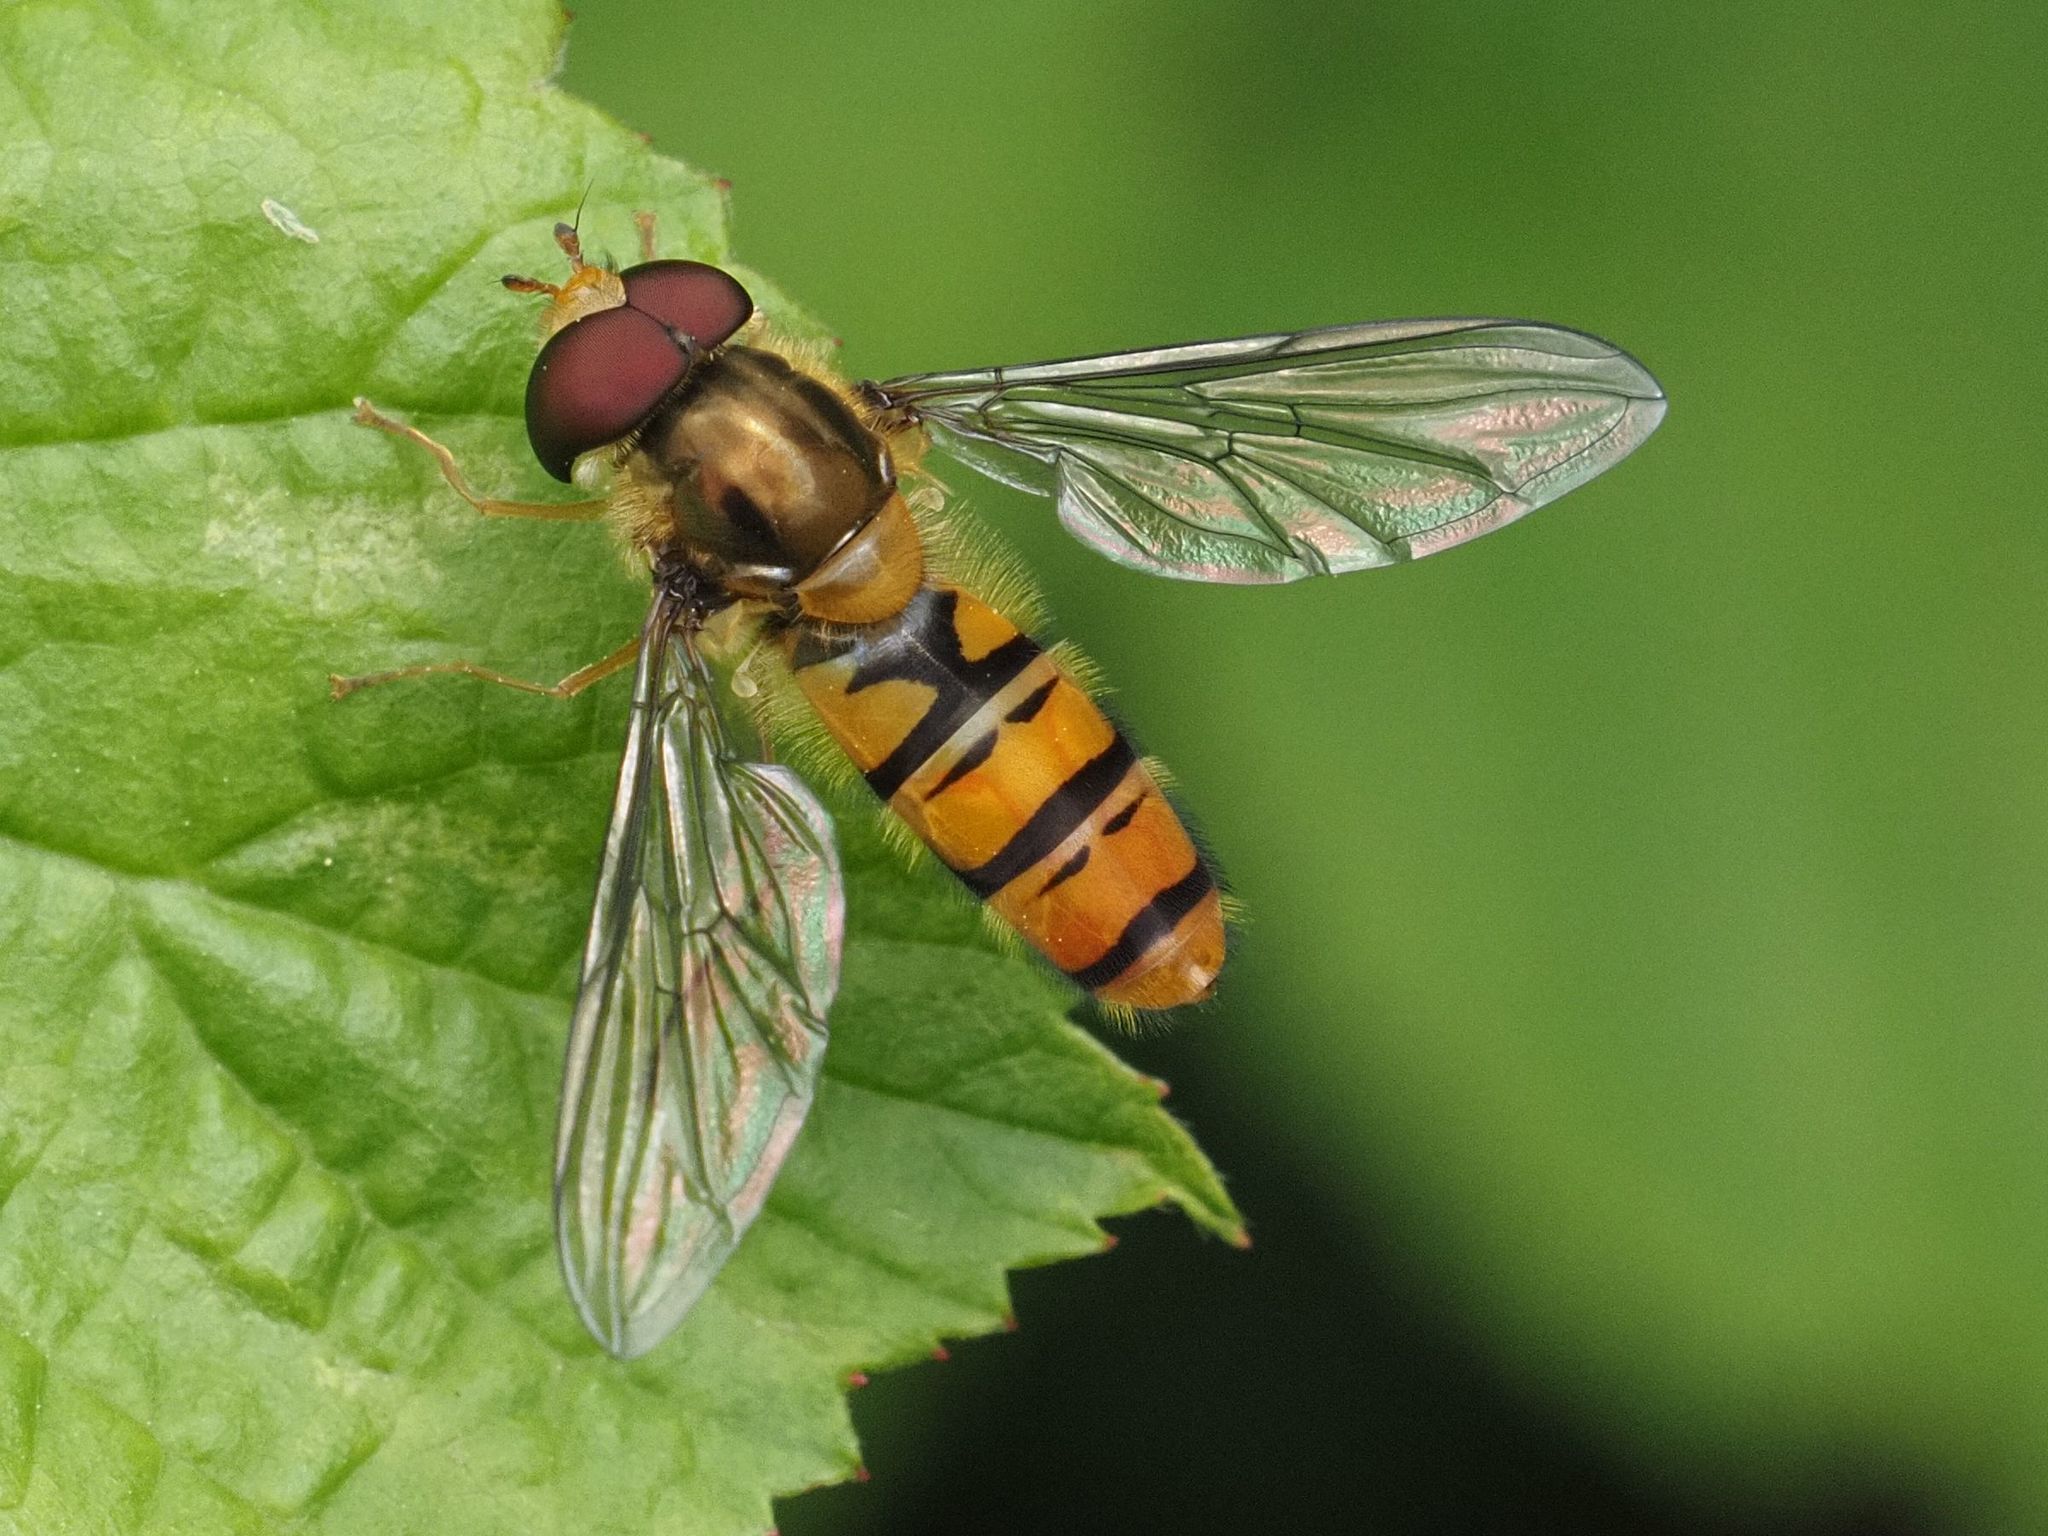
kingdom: Animalia
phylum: Arthropoda
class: Insecta
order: Diptera
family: Syrphidae
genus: Episyrphus
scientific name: Episyrphus balteatus
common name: Marmalade hoverfly
